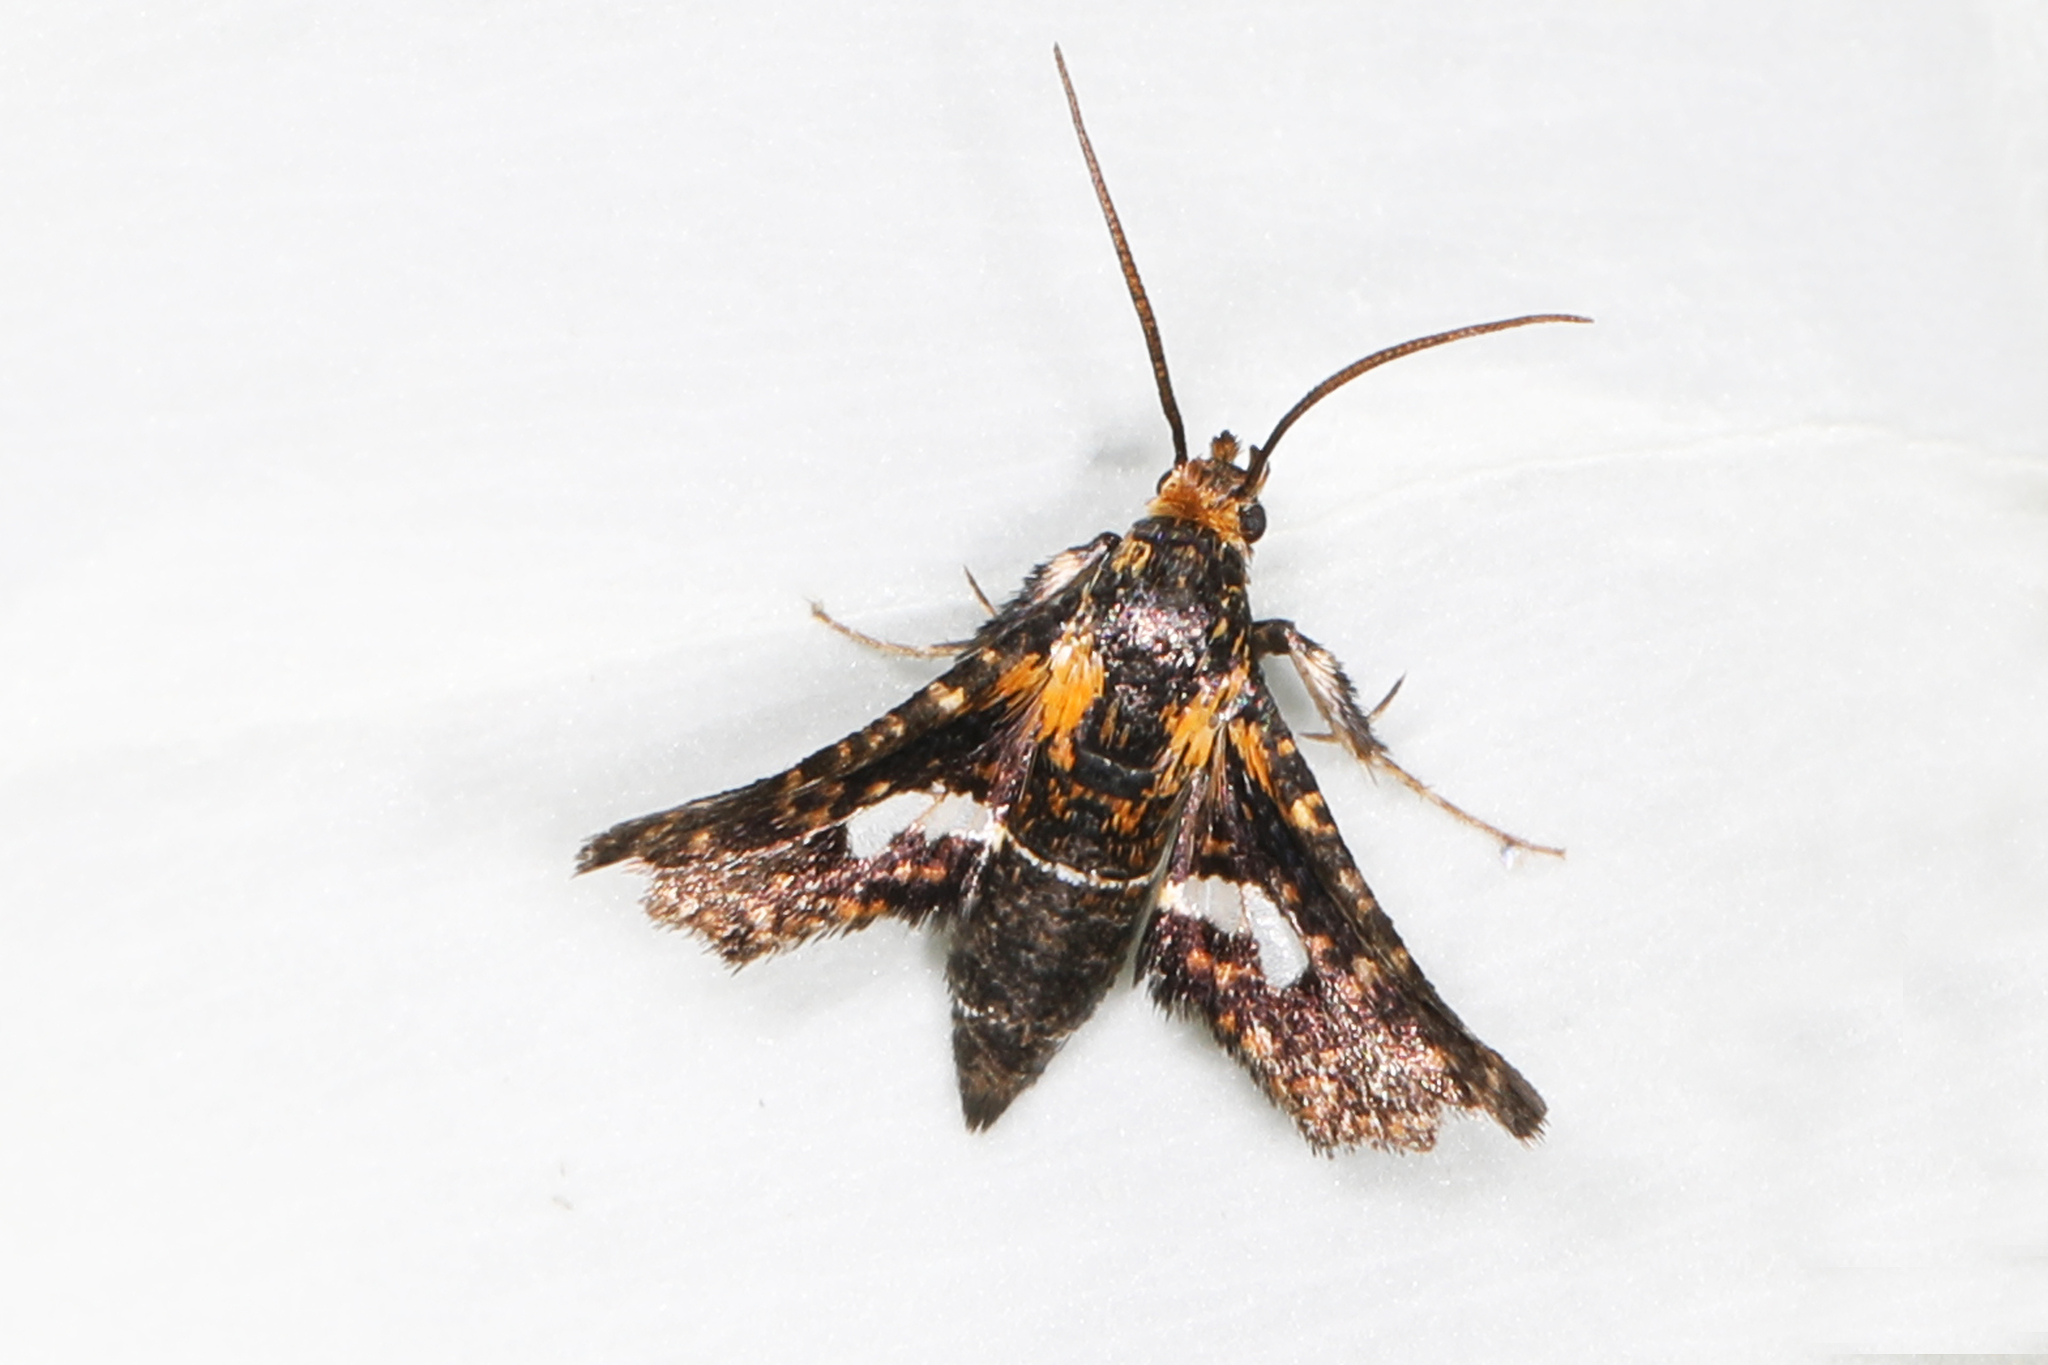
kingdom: Animalia
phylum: Arthropoda
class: Insecta
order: Lepidoptera
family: Thyrididae
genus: Thyris
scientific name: Thyris maculata
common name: Spotted thyris moth
